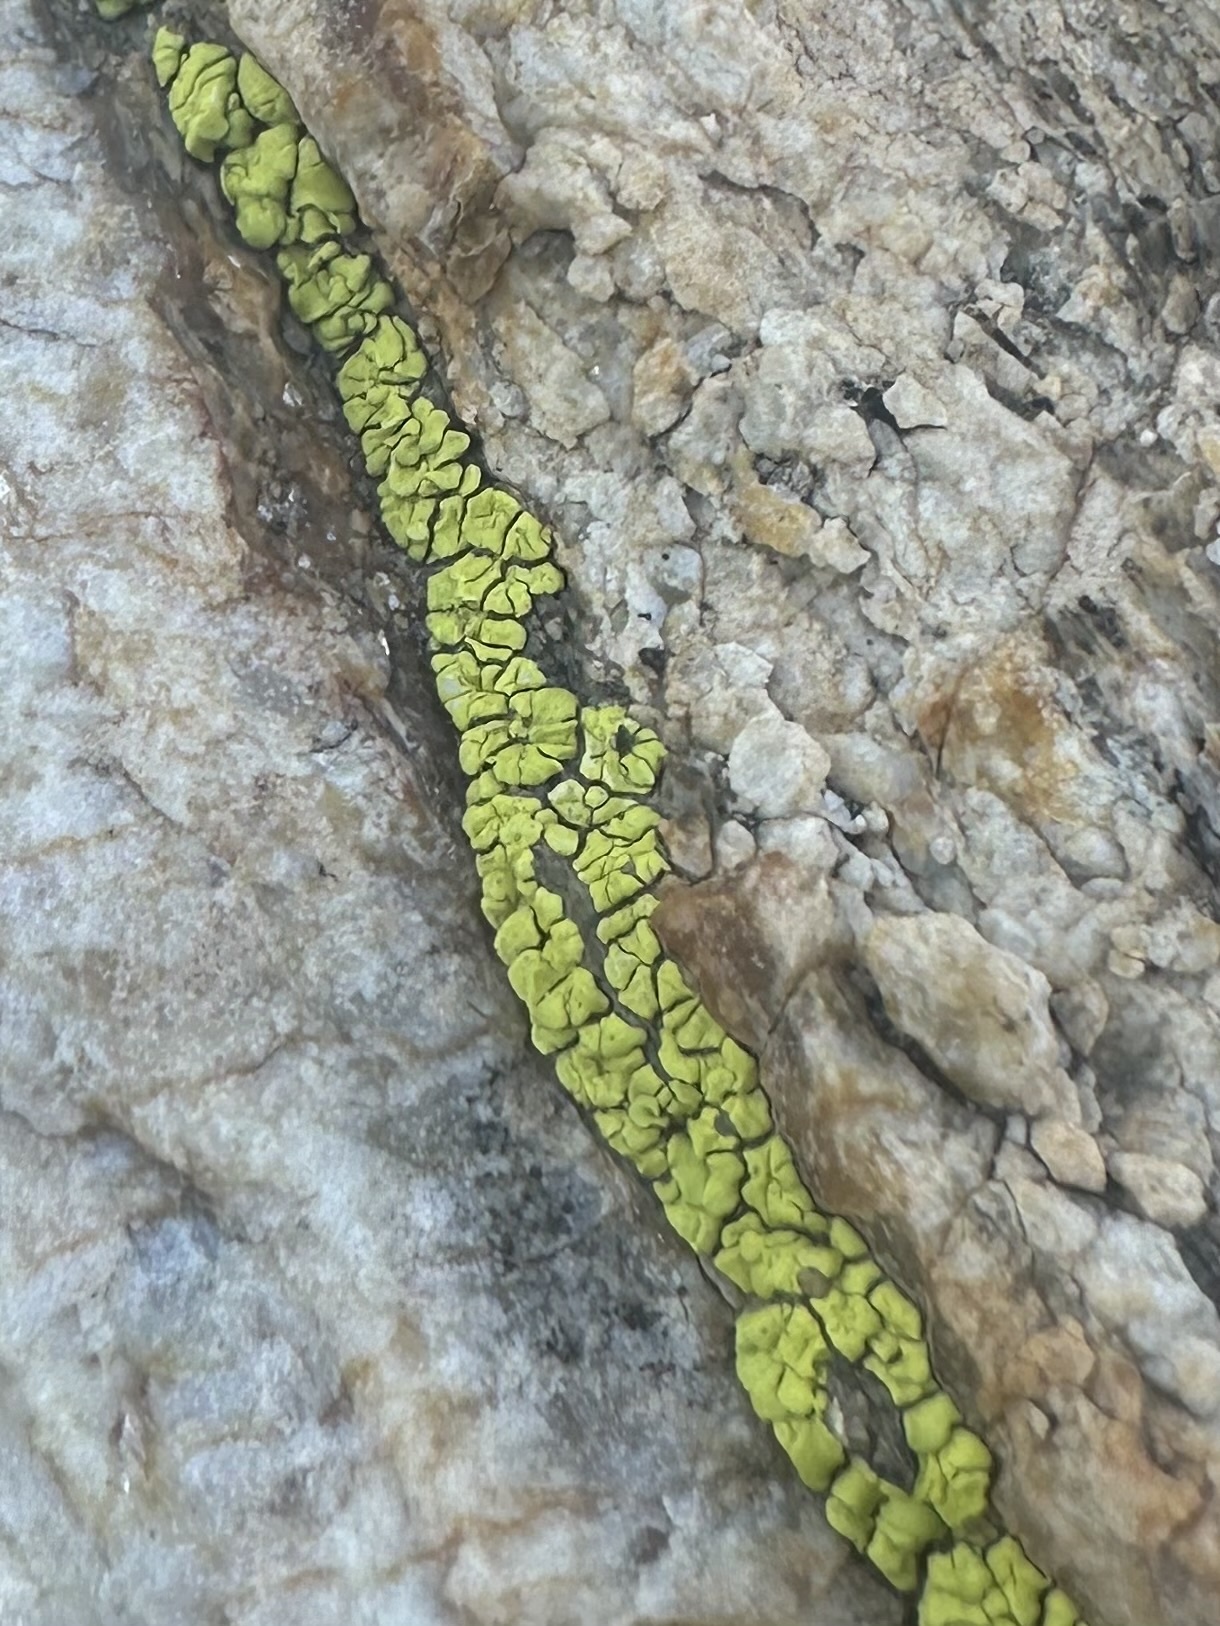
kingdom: Fungi
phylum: Ascomycota
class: Lecanoromycetes
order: Acarosporales
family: Acarosporaceae
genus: Acarospora
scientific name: Acarospora socialis
